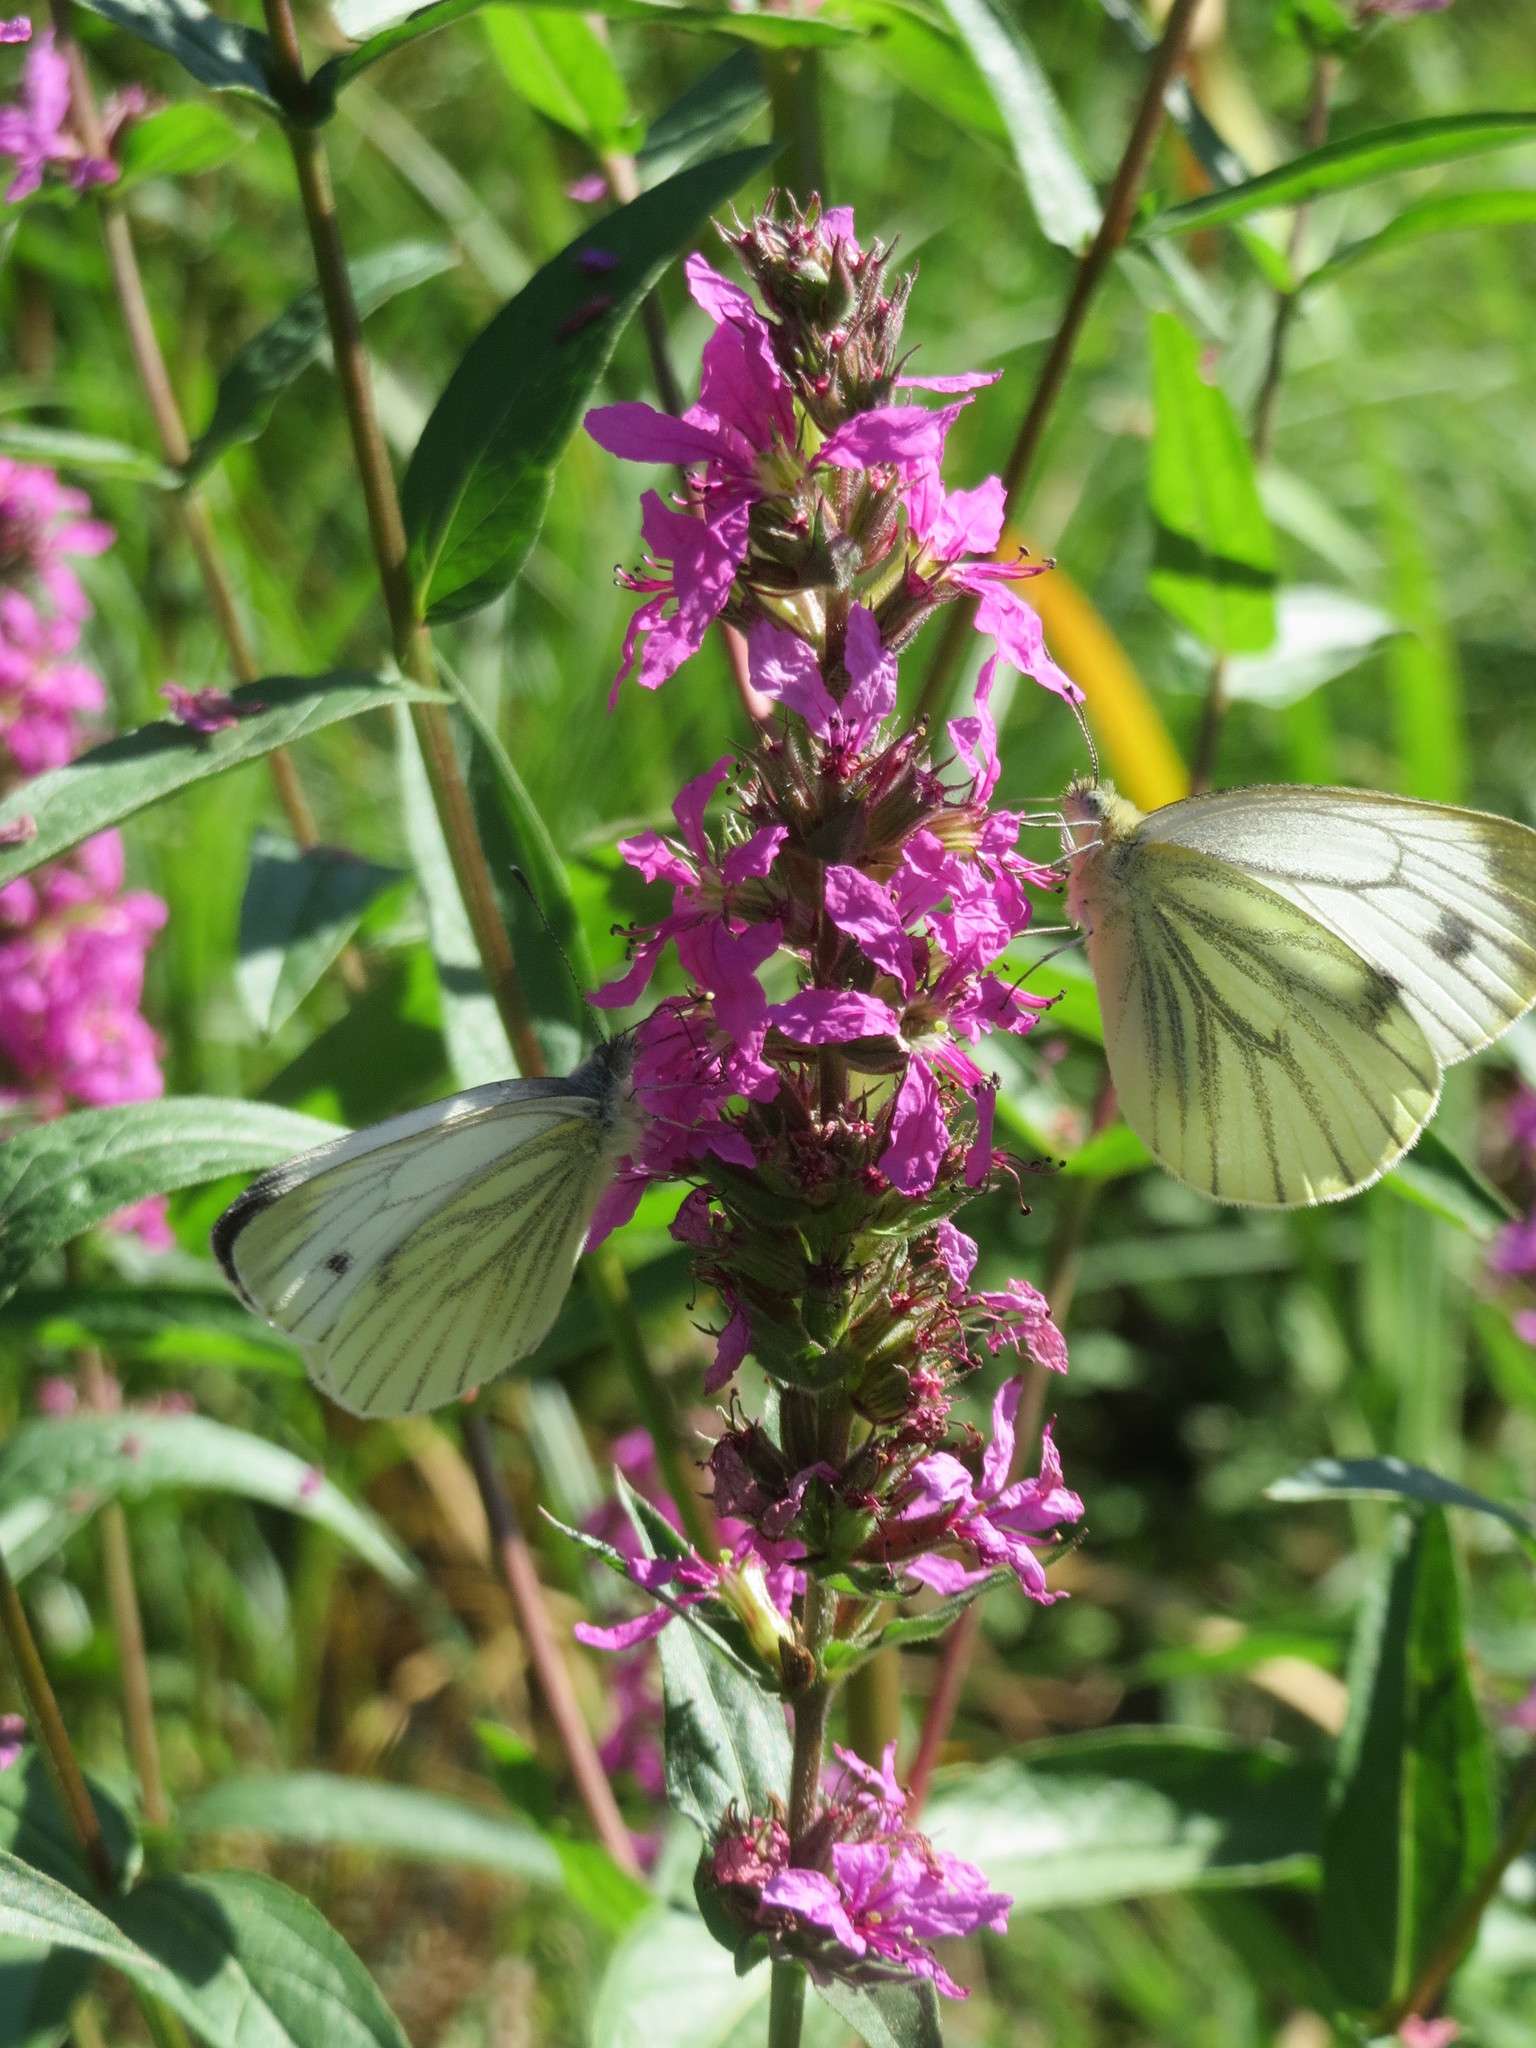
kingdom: Plantae
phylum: Tracheophyta
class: Magnoliopsida
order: Myrtales
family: Lythraceae
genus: Lythrum
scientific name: Lythrum salicaria
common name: Purple loosestrife
